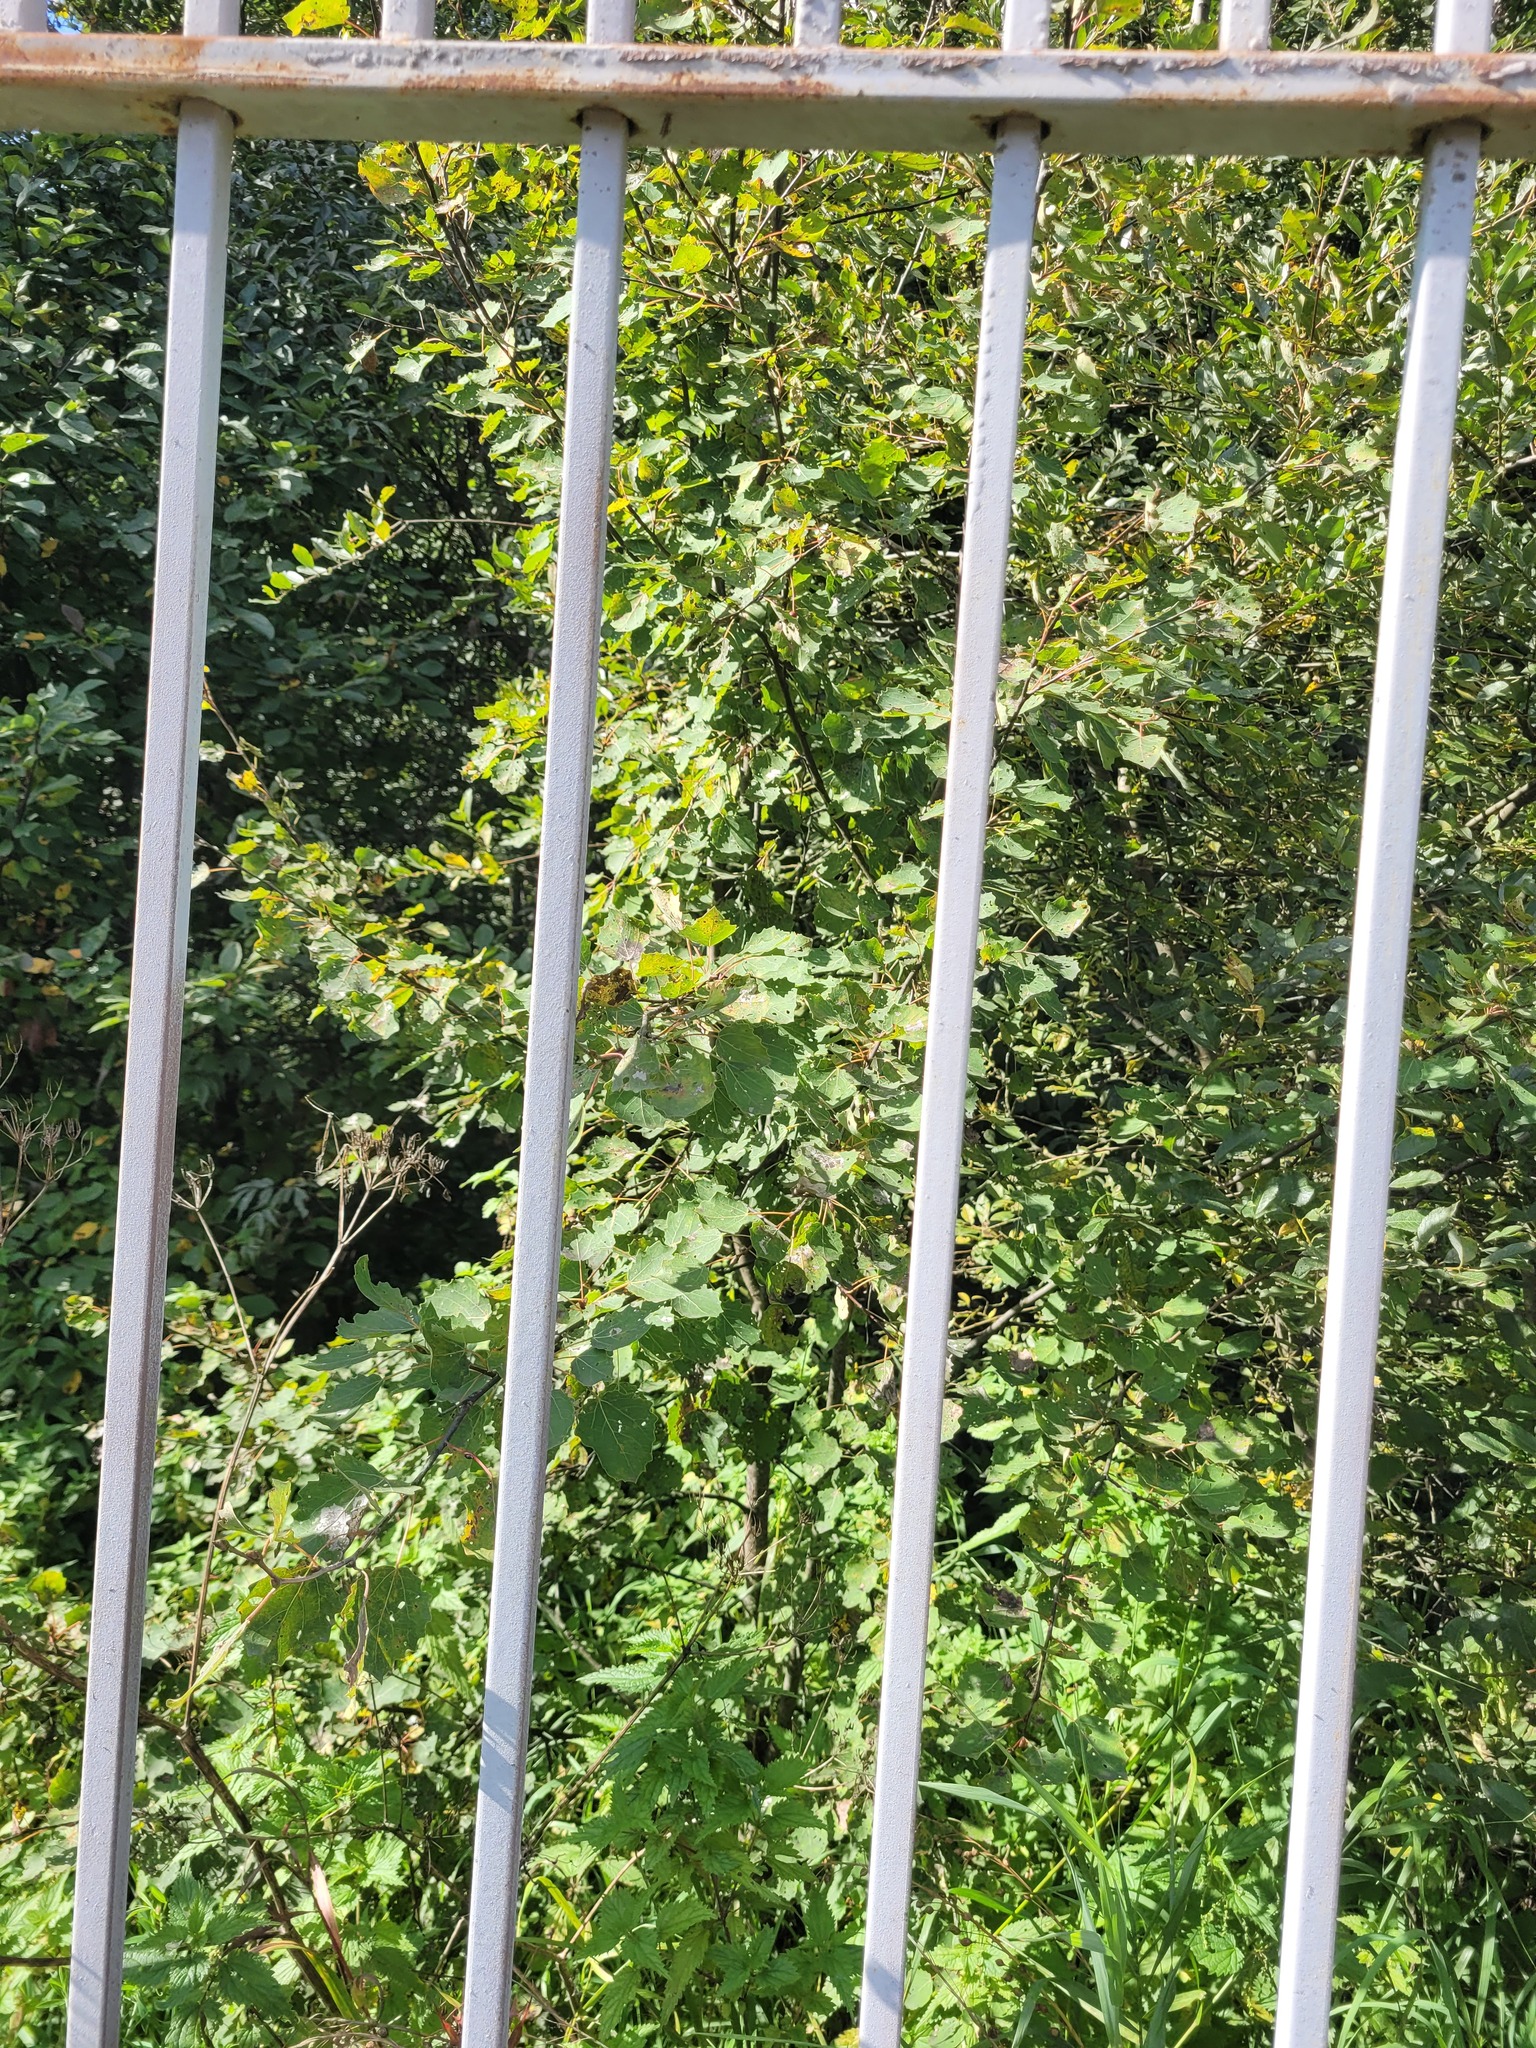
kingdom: Plantae
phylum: Tracheophyta
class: Magnoliopsida
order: Malpighiales
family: Salicaceae
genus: Populus
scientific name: Populus tremula
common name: European aspen
